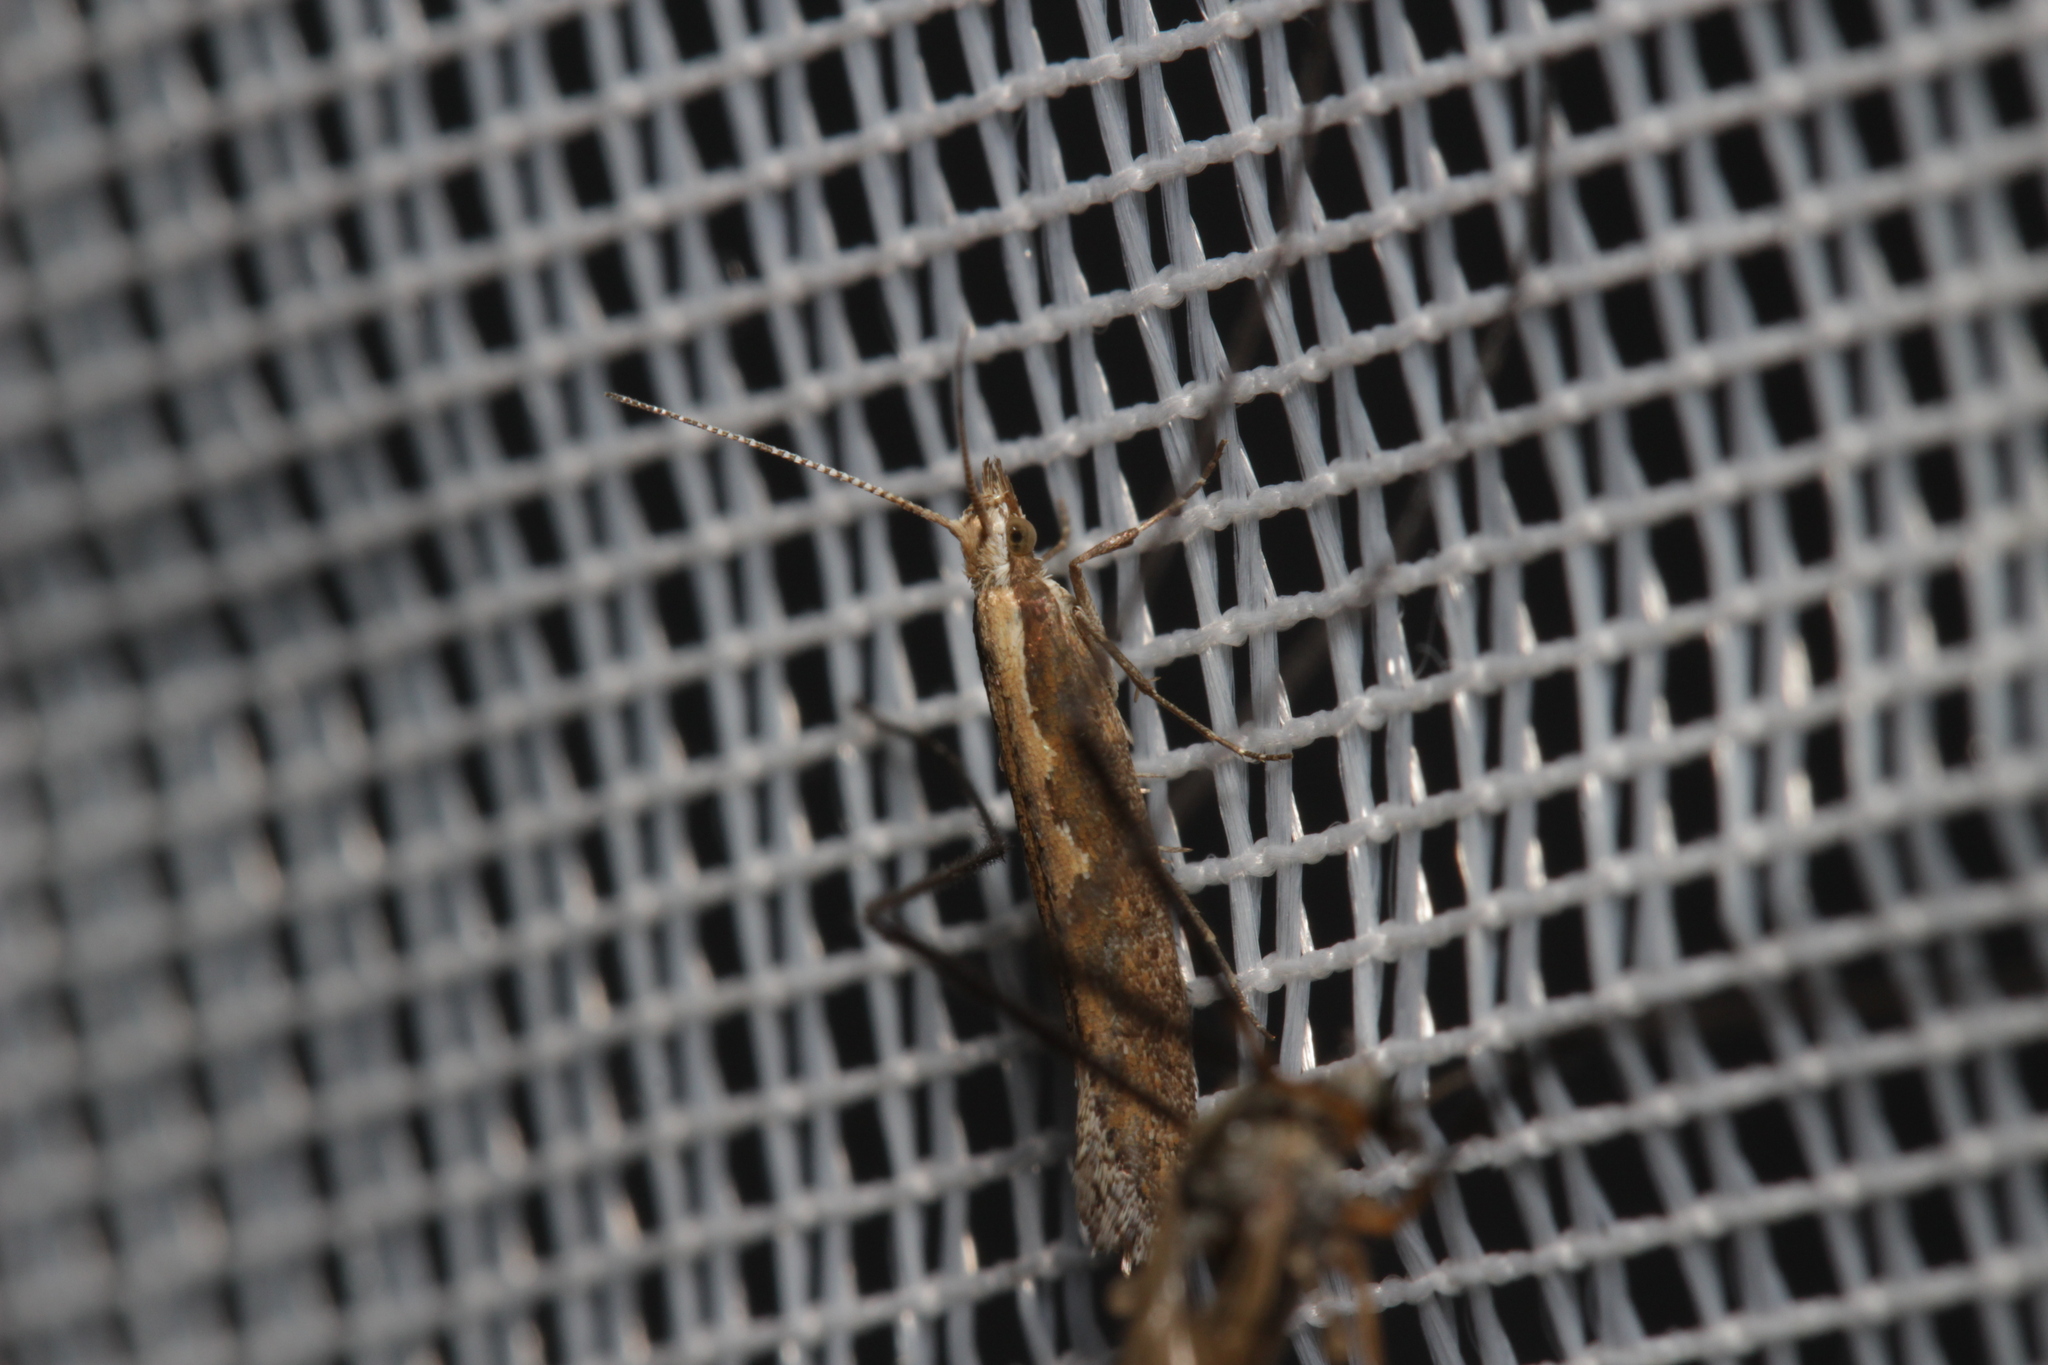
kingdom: Animalia
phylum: Arthropoda
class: Insecta
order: Lepidoptera
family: Plutellidae
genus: Plutella
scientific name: Plutella xylostella
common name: Diamond-back moth
